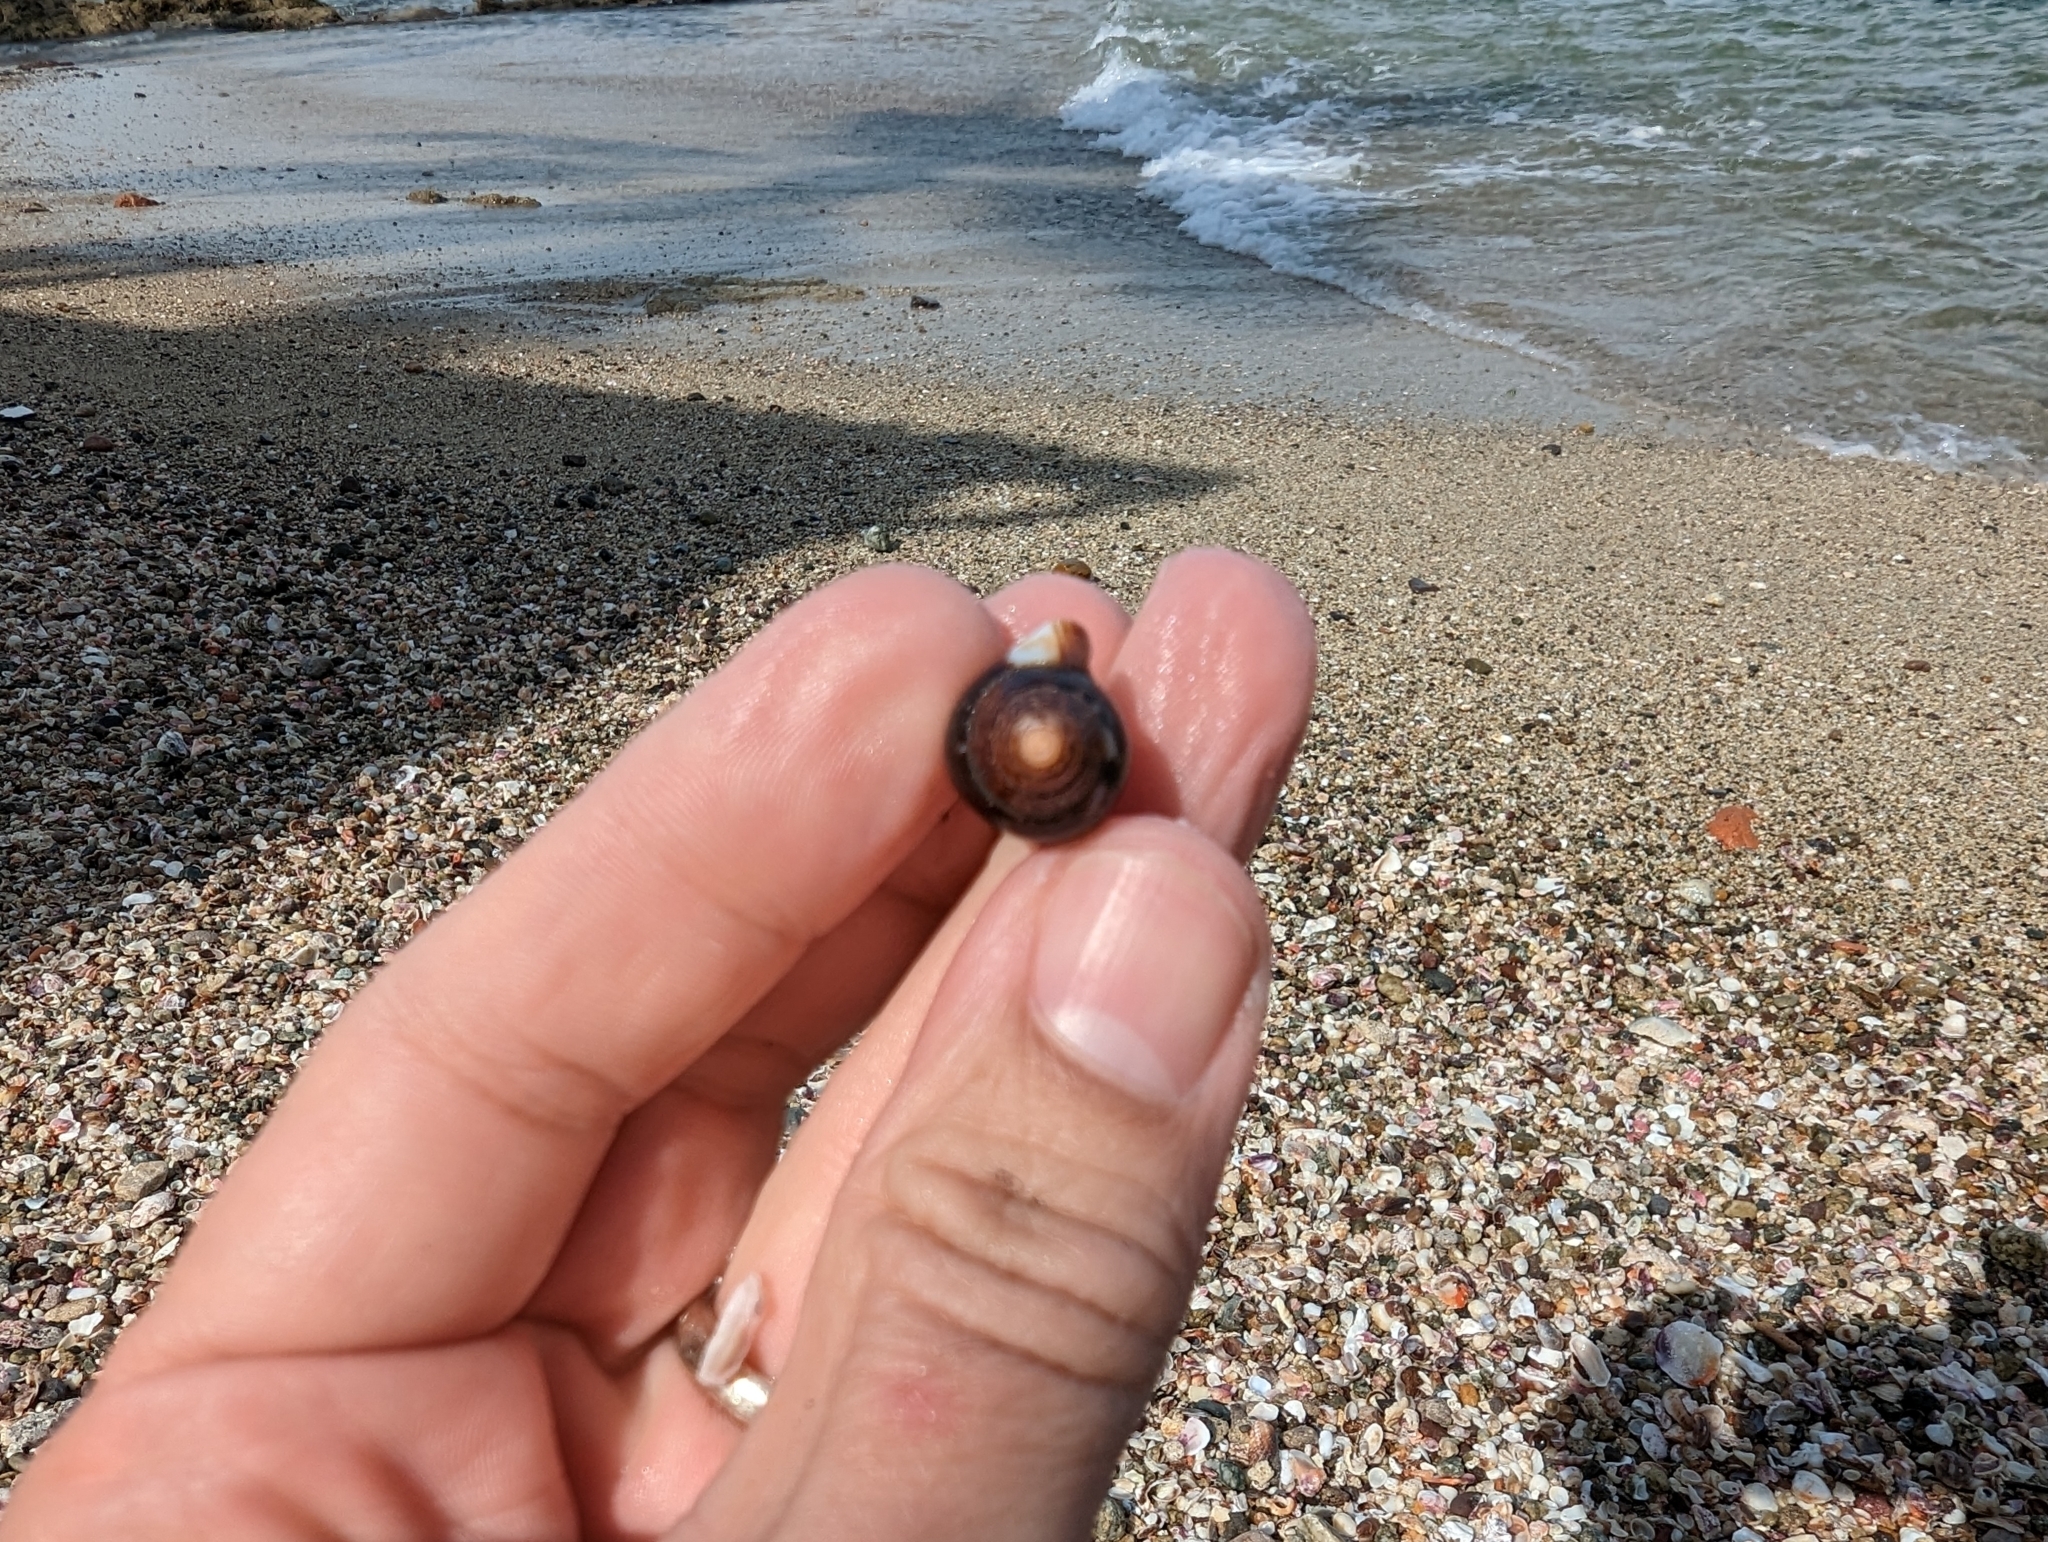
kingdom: Animalia
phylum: Mollusca
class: Gastropoda
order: Neogastropoda
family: Columbellidae
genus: Columbella
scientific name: Columbella major
